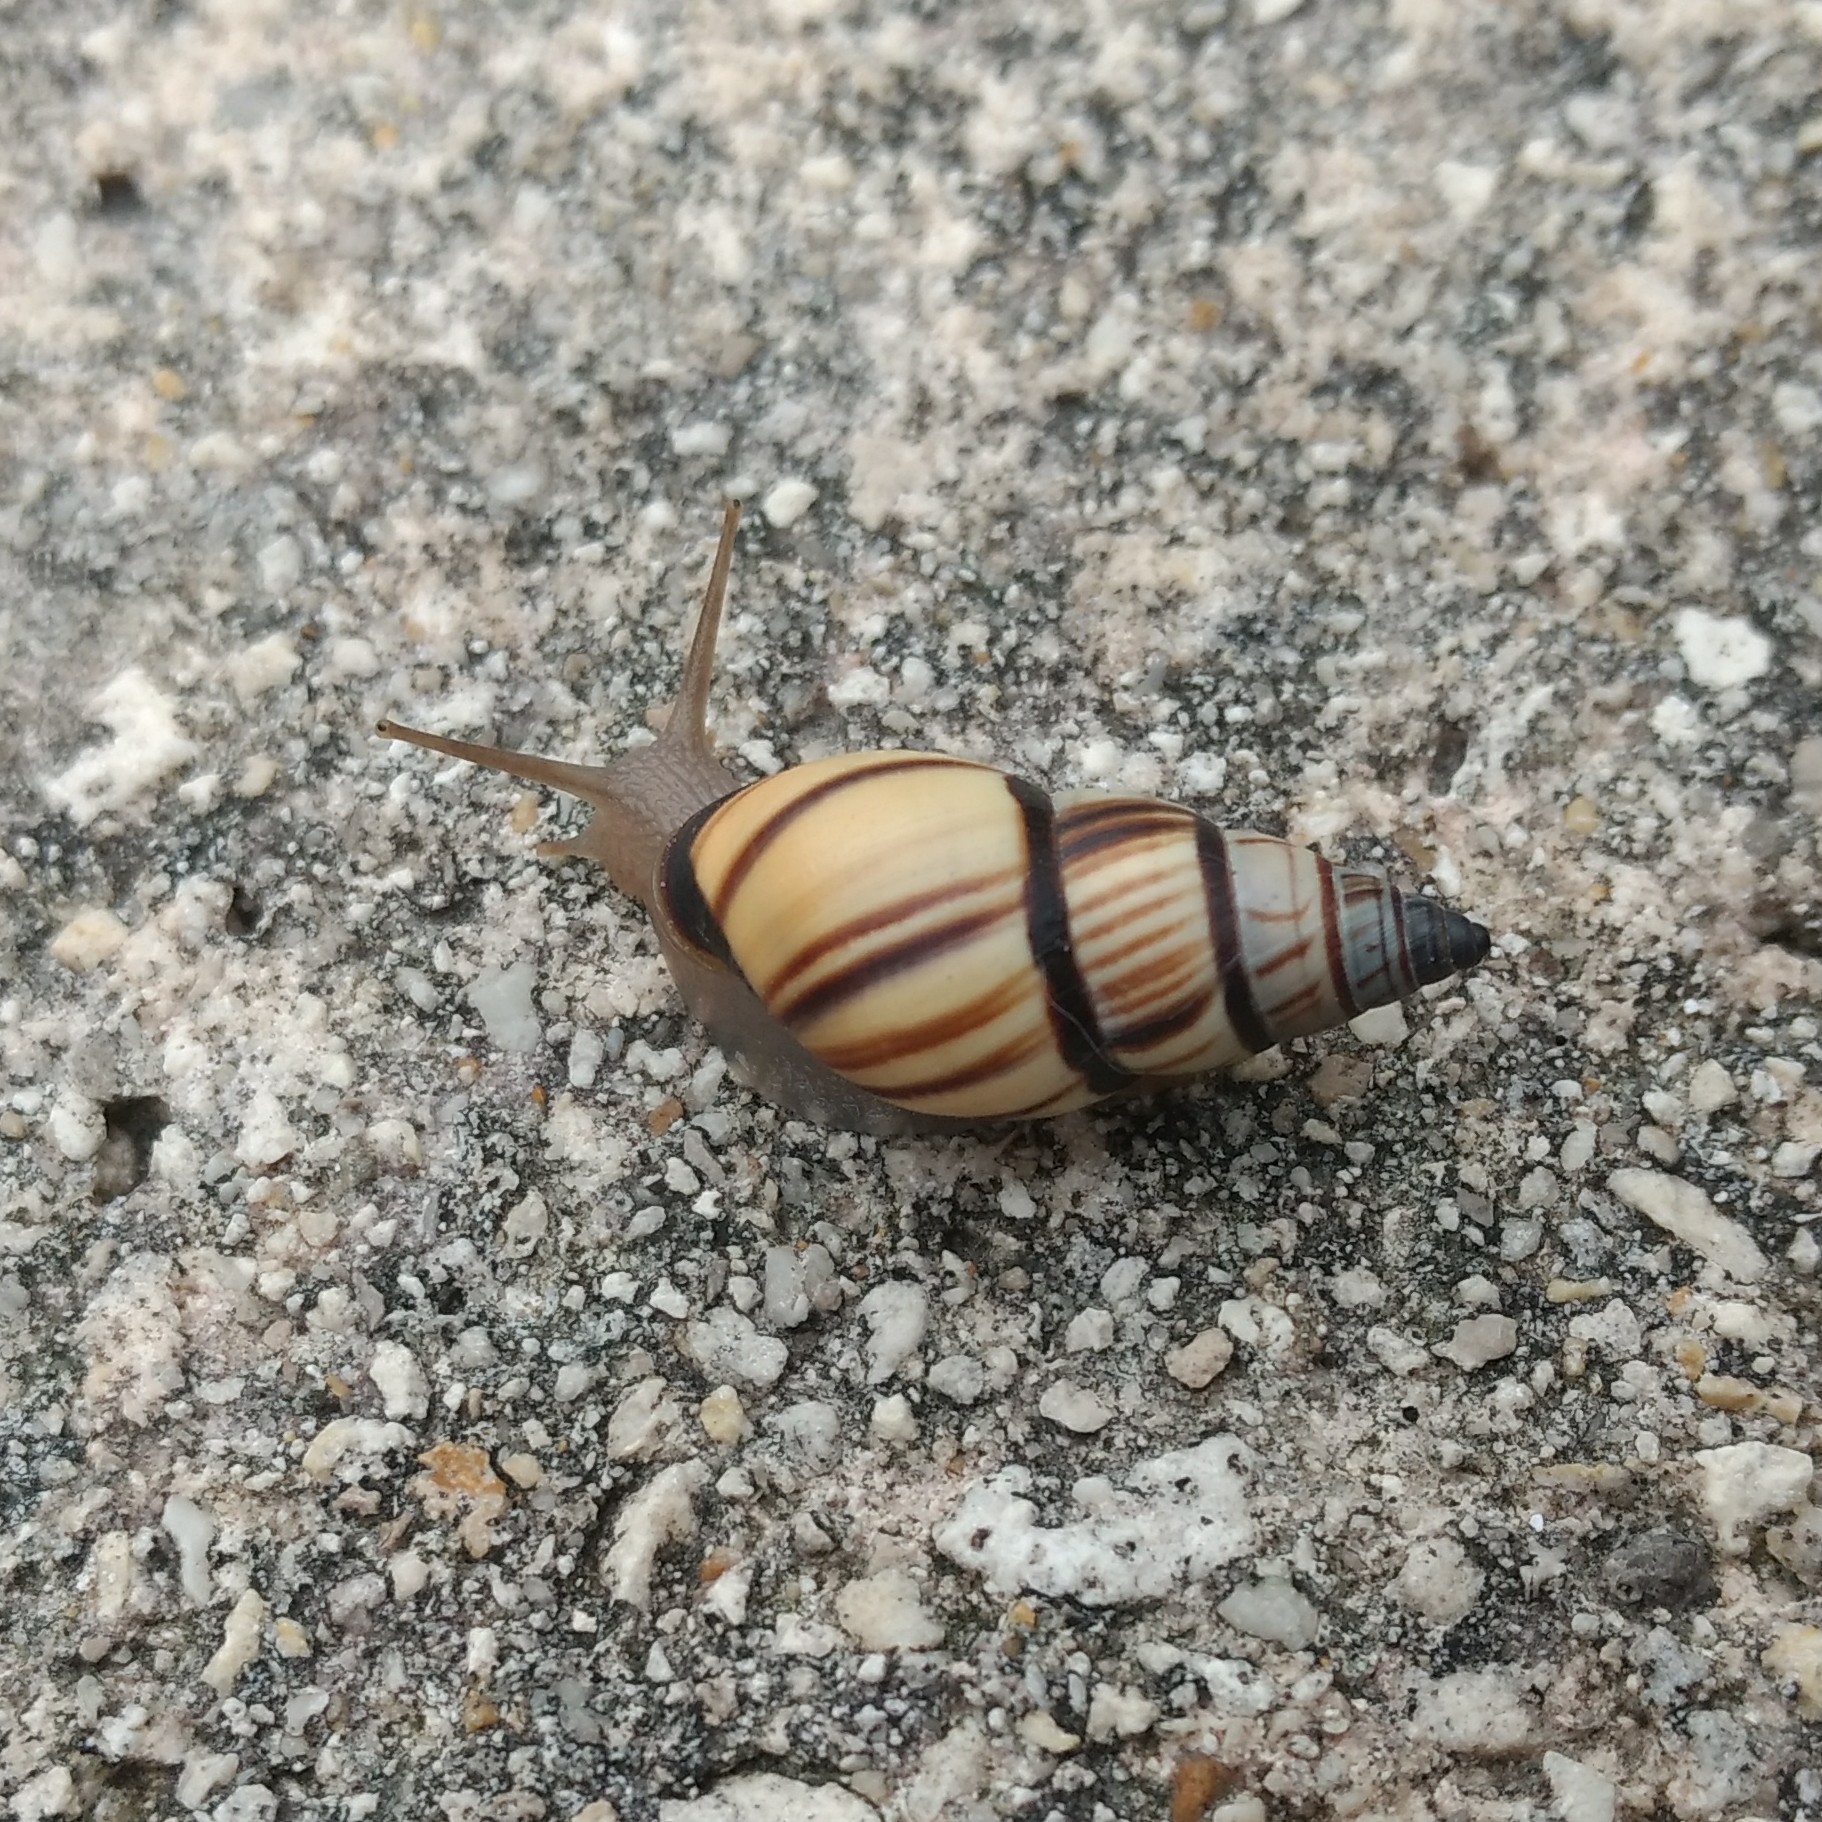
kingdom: Animalia
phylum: Mollusca
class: Gastropoda
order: Stylommatophora
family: Bulimulidae
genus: Drymaeus
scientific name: Drymaeus
